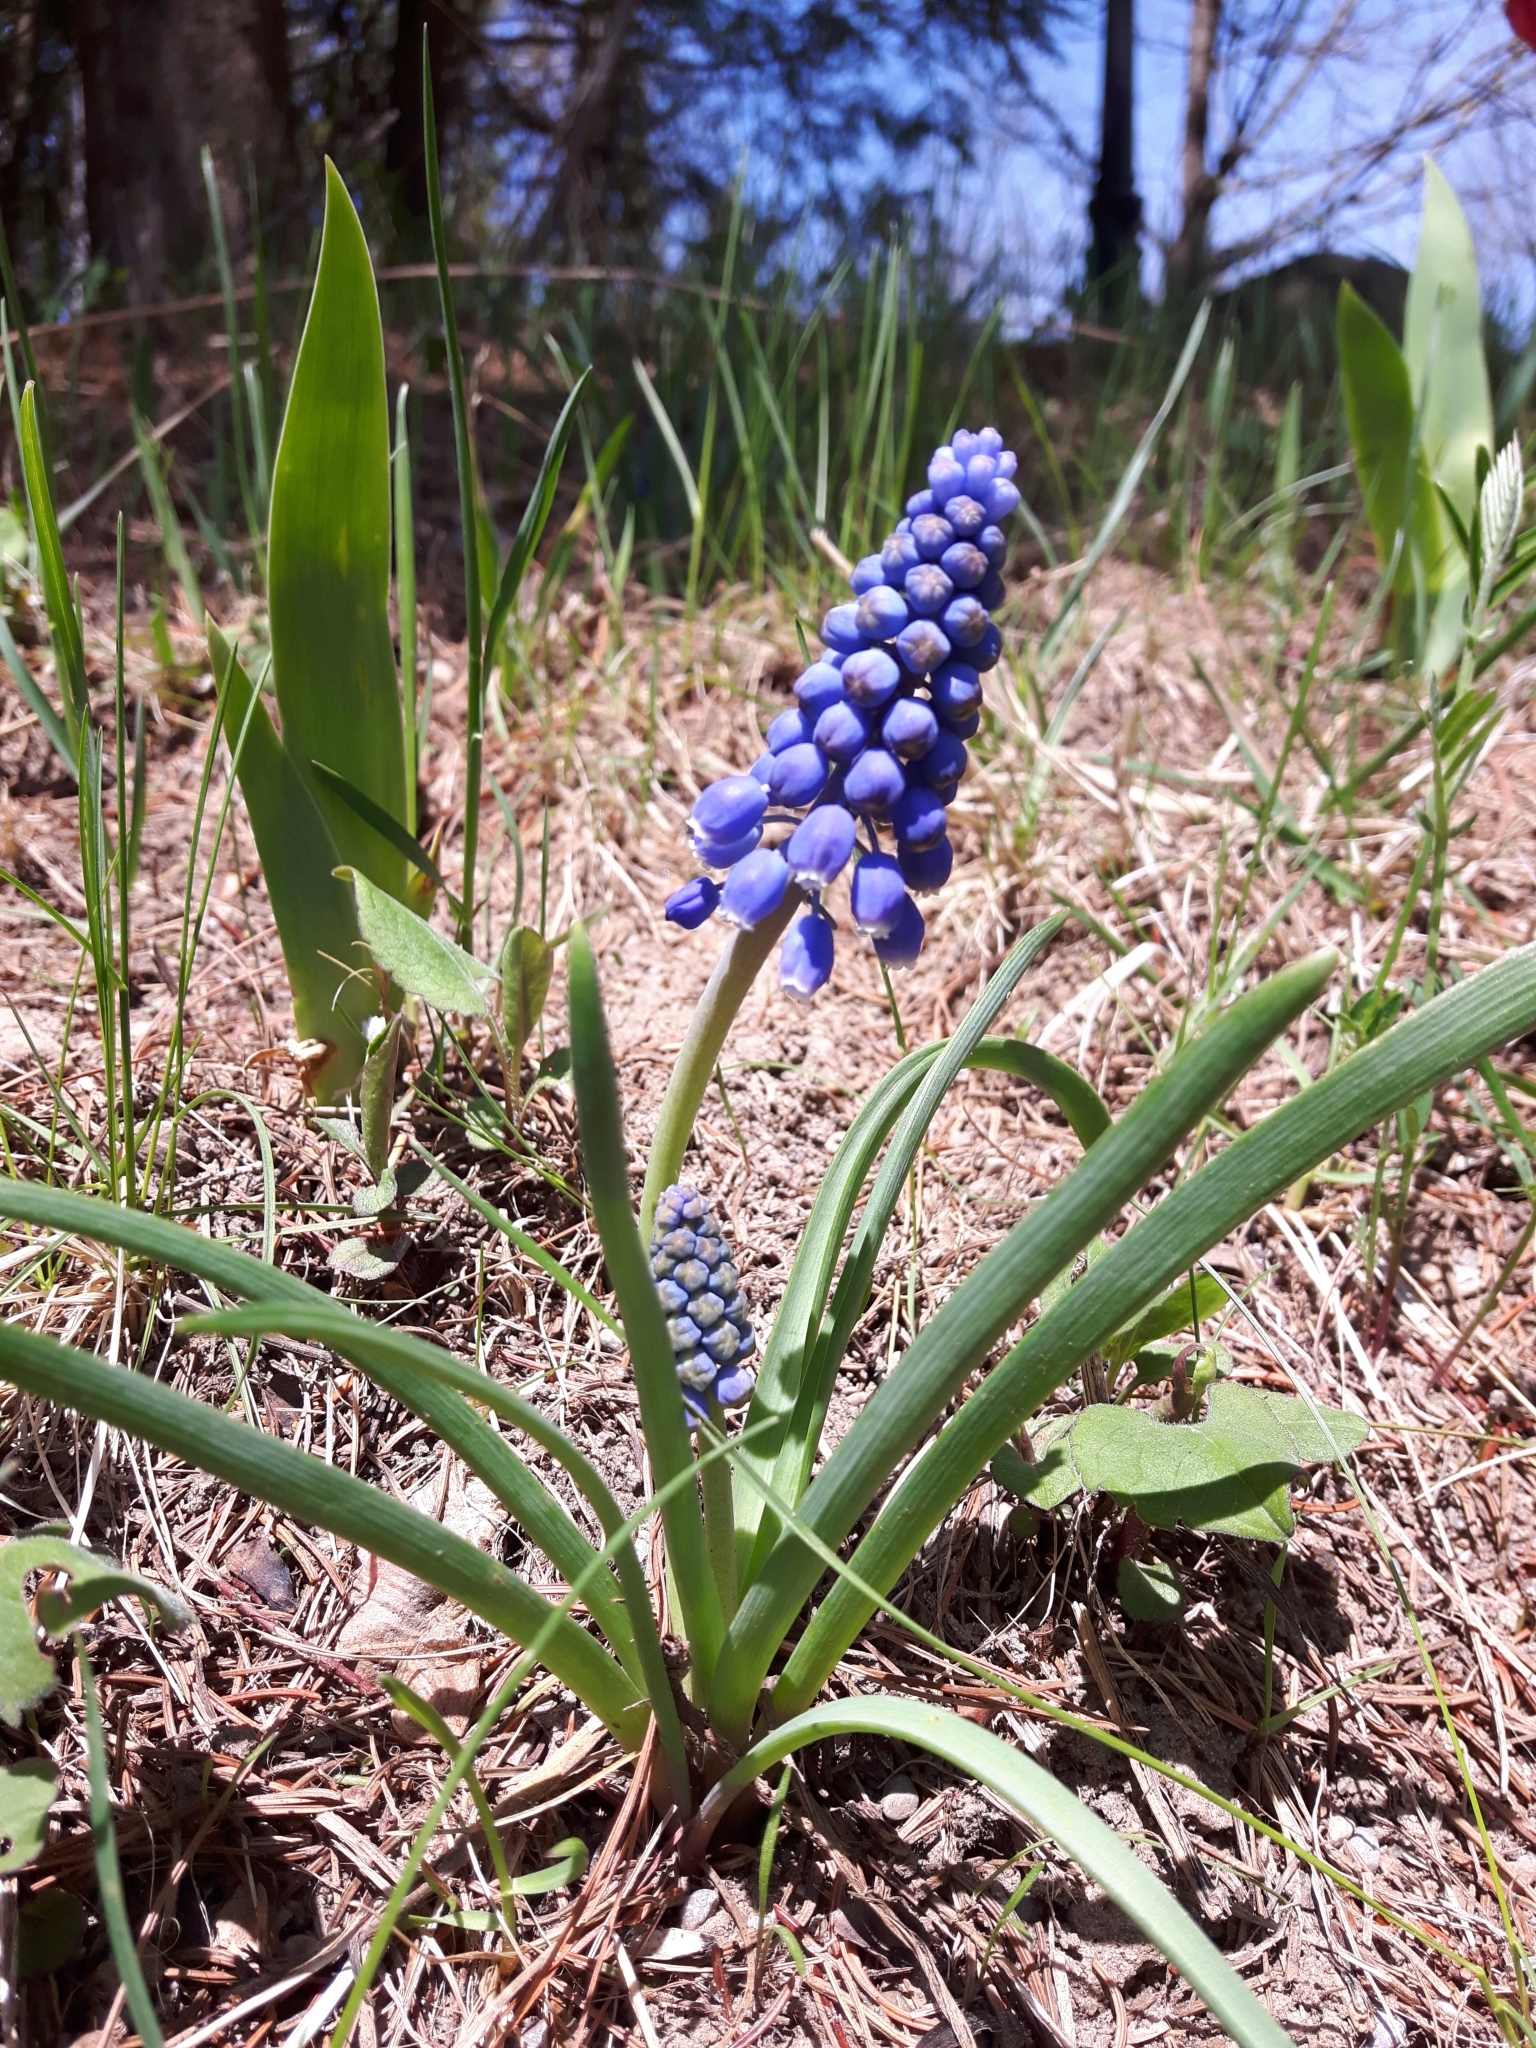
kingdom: Plantae
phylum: Tracheophyta
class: Liliopsida
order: Asparagales
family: Asparagaceae
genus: Muscari
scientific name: Muscari botryoides
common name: Compact grape-hyacinth
